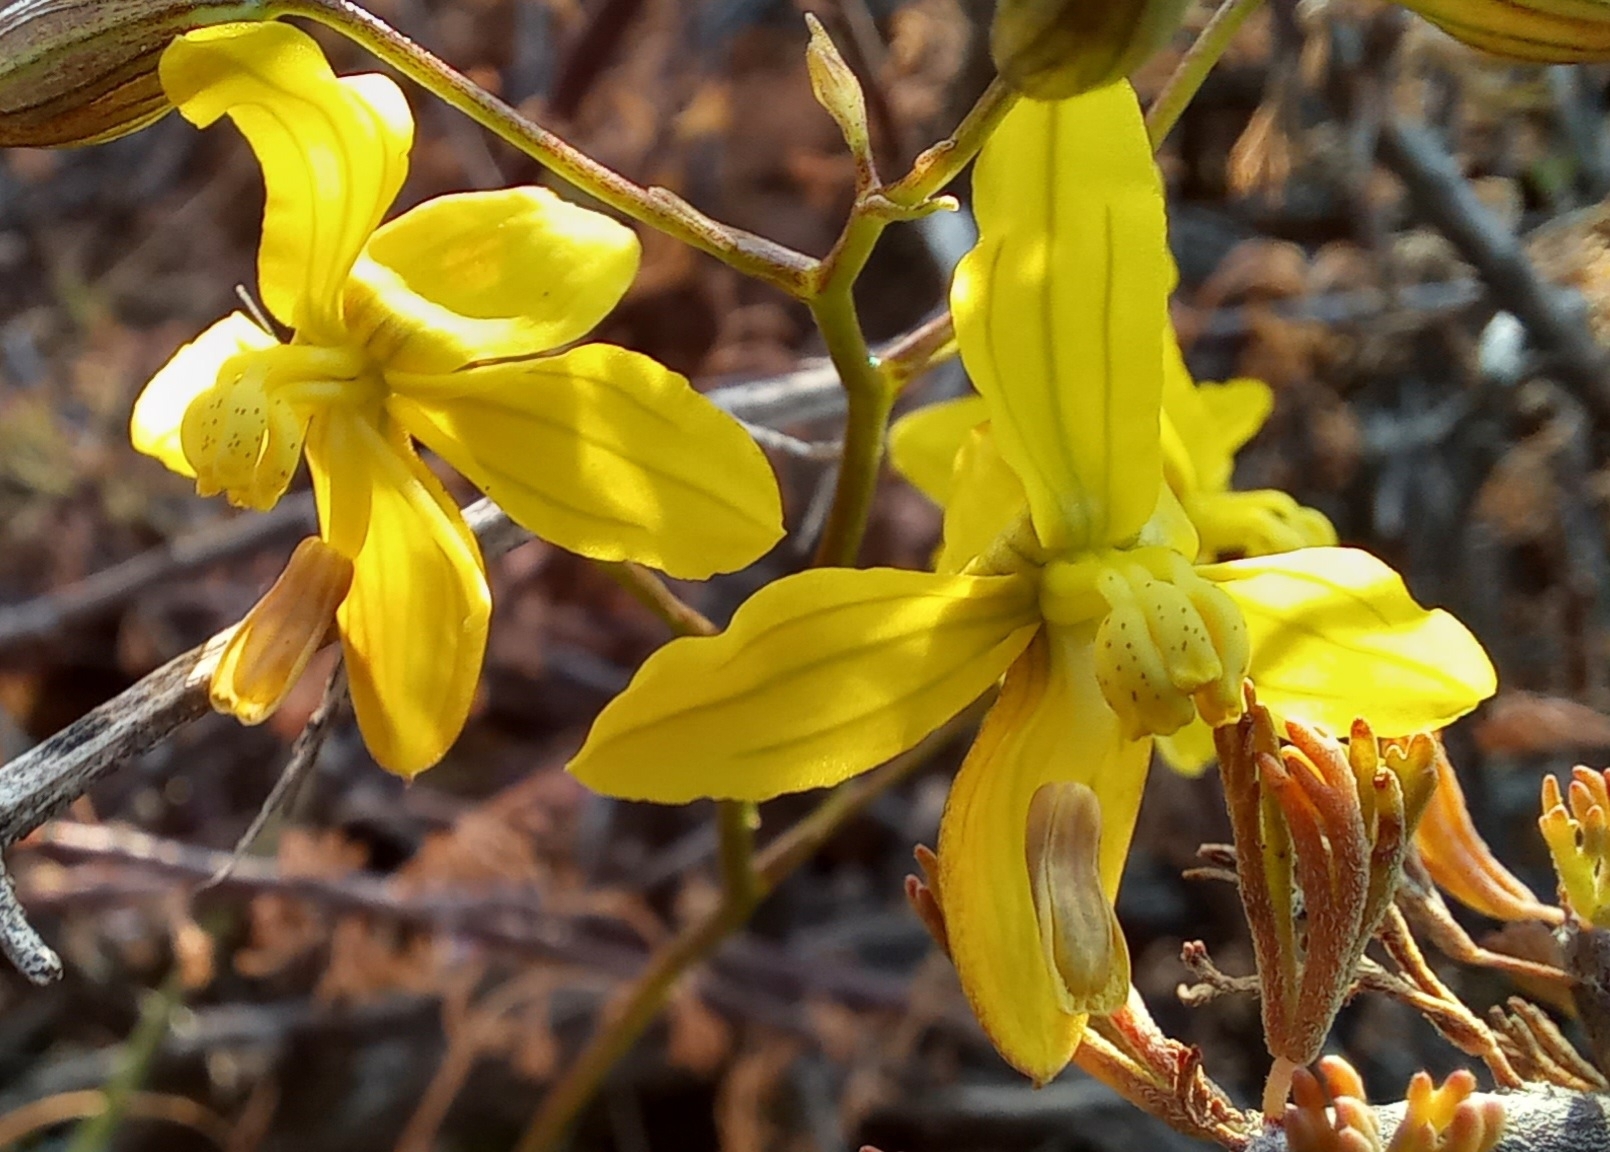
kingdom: Plantae
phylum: Tracheophyta
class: Liliopsida
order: Asparagales
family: Tecophilaeaceae
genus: Cyanella
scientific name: Cyanella lutea
